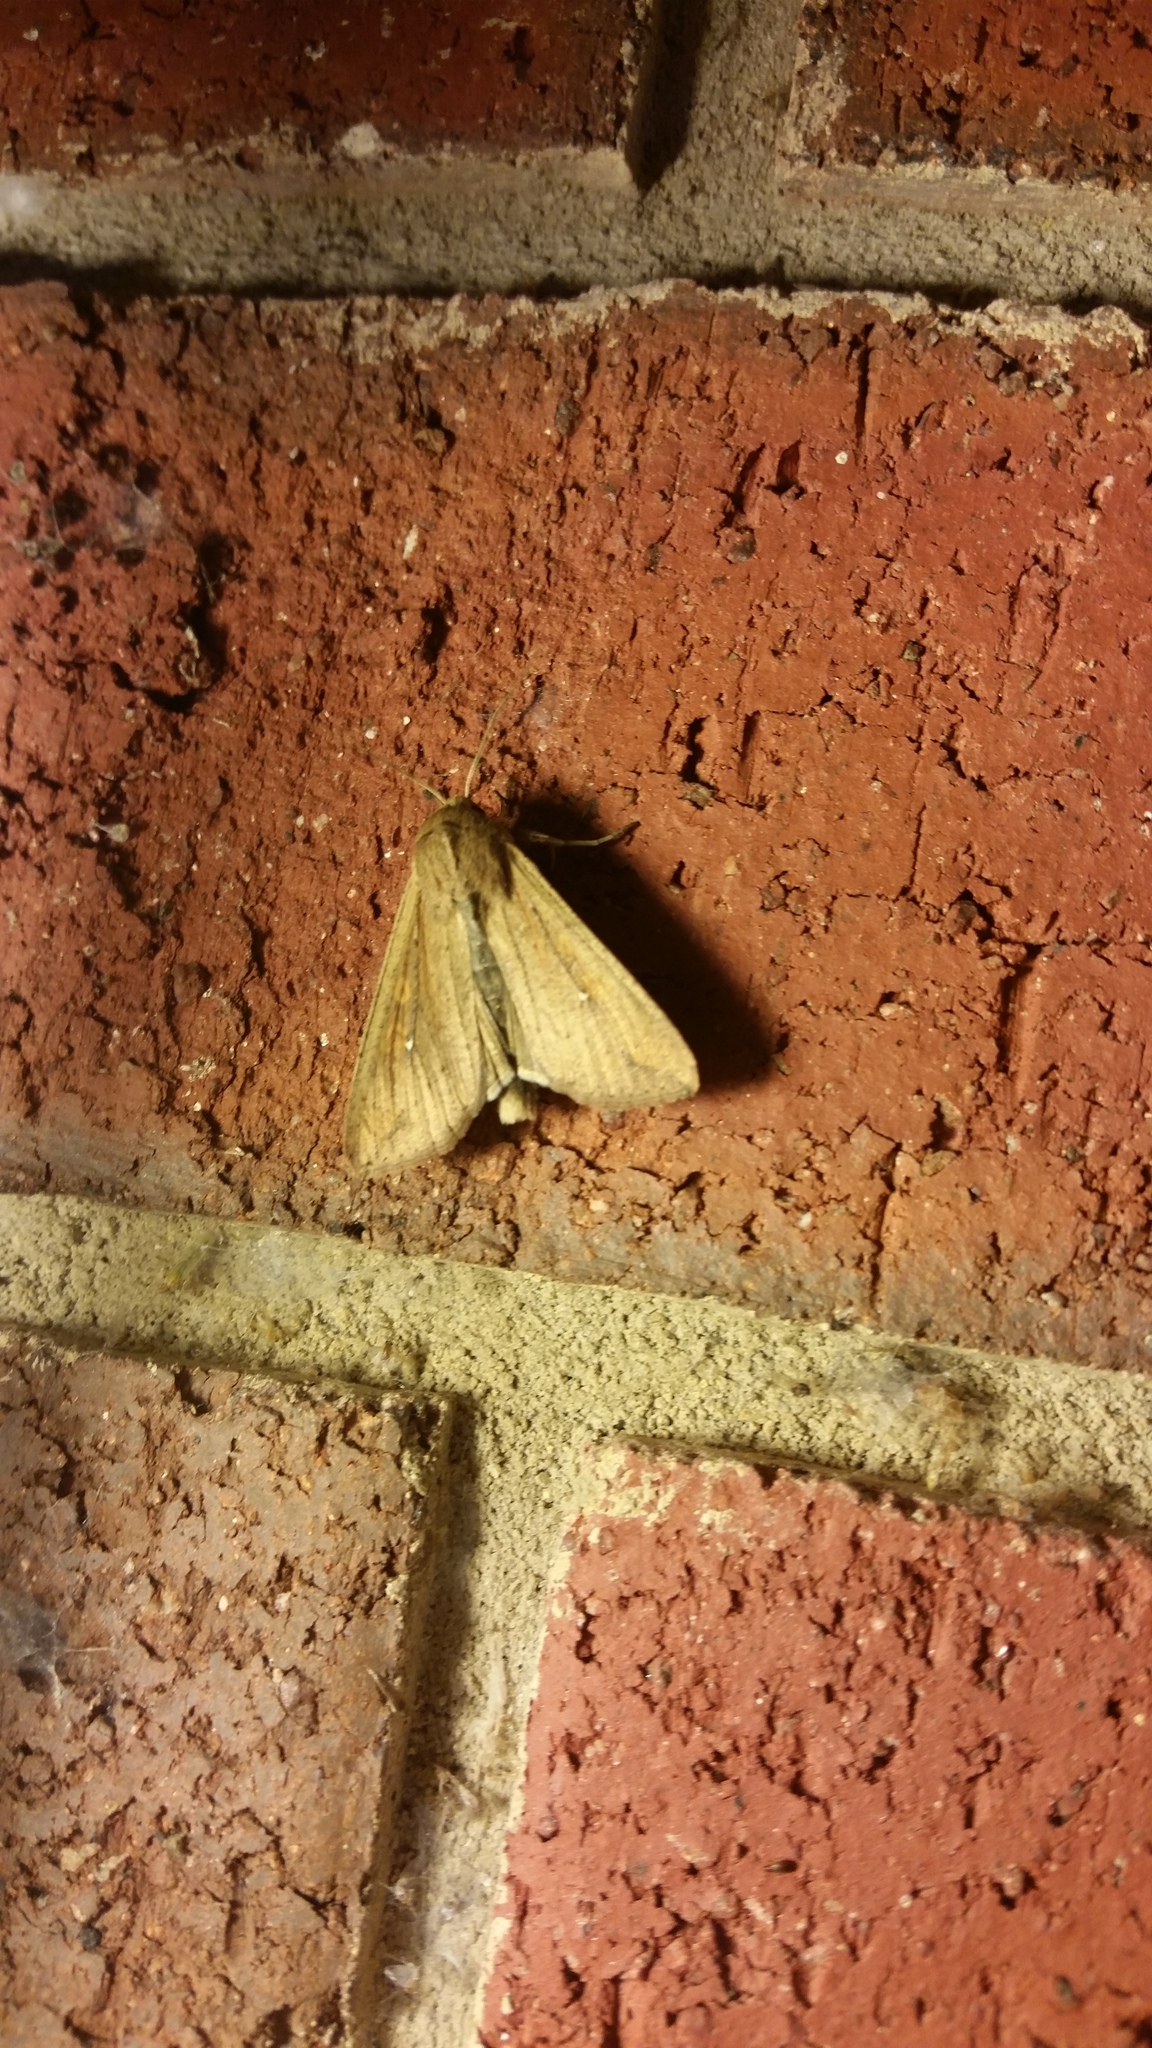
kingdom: Animalia
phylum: Arthropoda
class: Insecta
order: Lepidoptera
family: Noctuidae
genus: Mythimna
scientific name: Mythimna unipuncta
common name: White-speck
